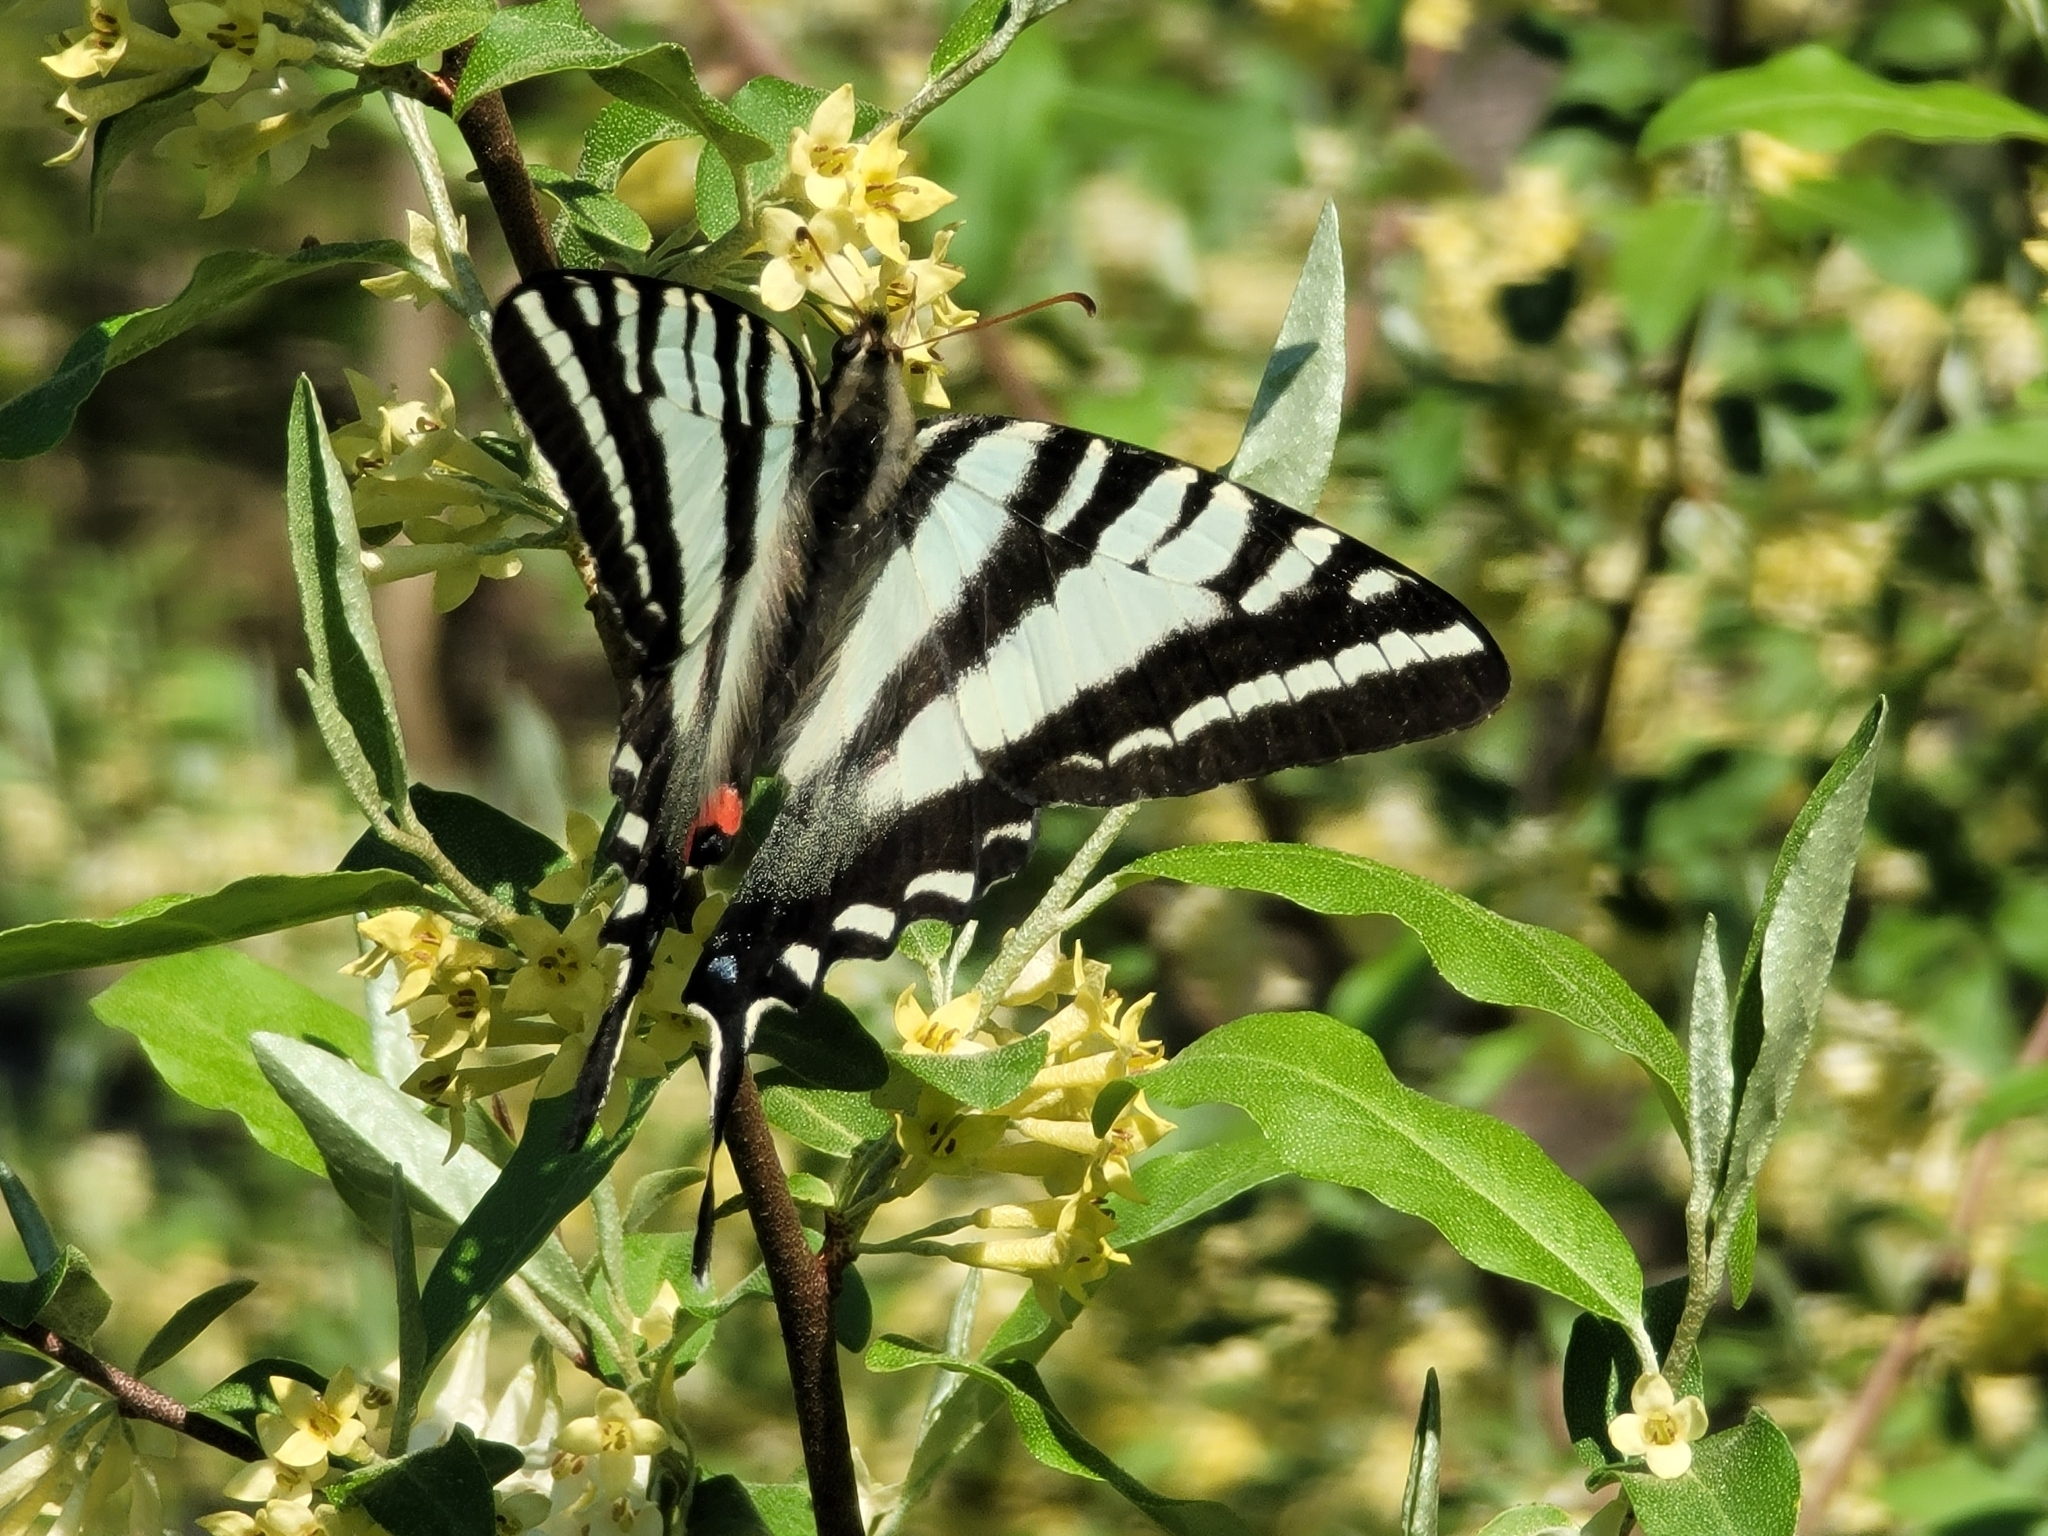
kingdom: Animalia
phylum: Arthropoda
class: Insecta
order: Lepidoptera
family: Papilionidae
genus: Protographium
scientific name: Protographium marcellus
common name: Zebra swallowtail
